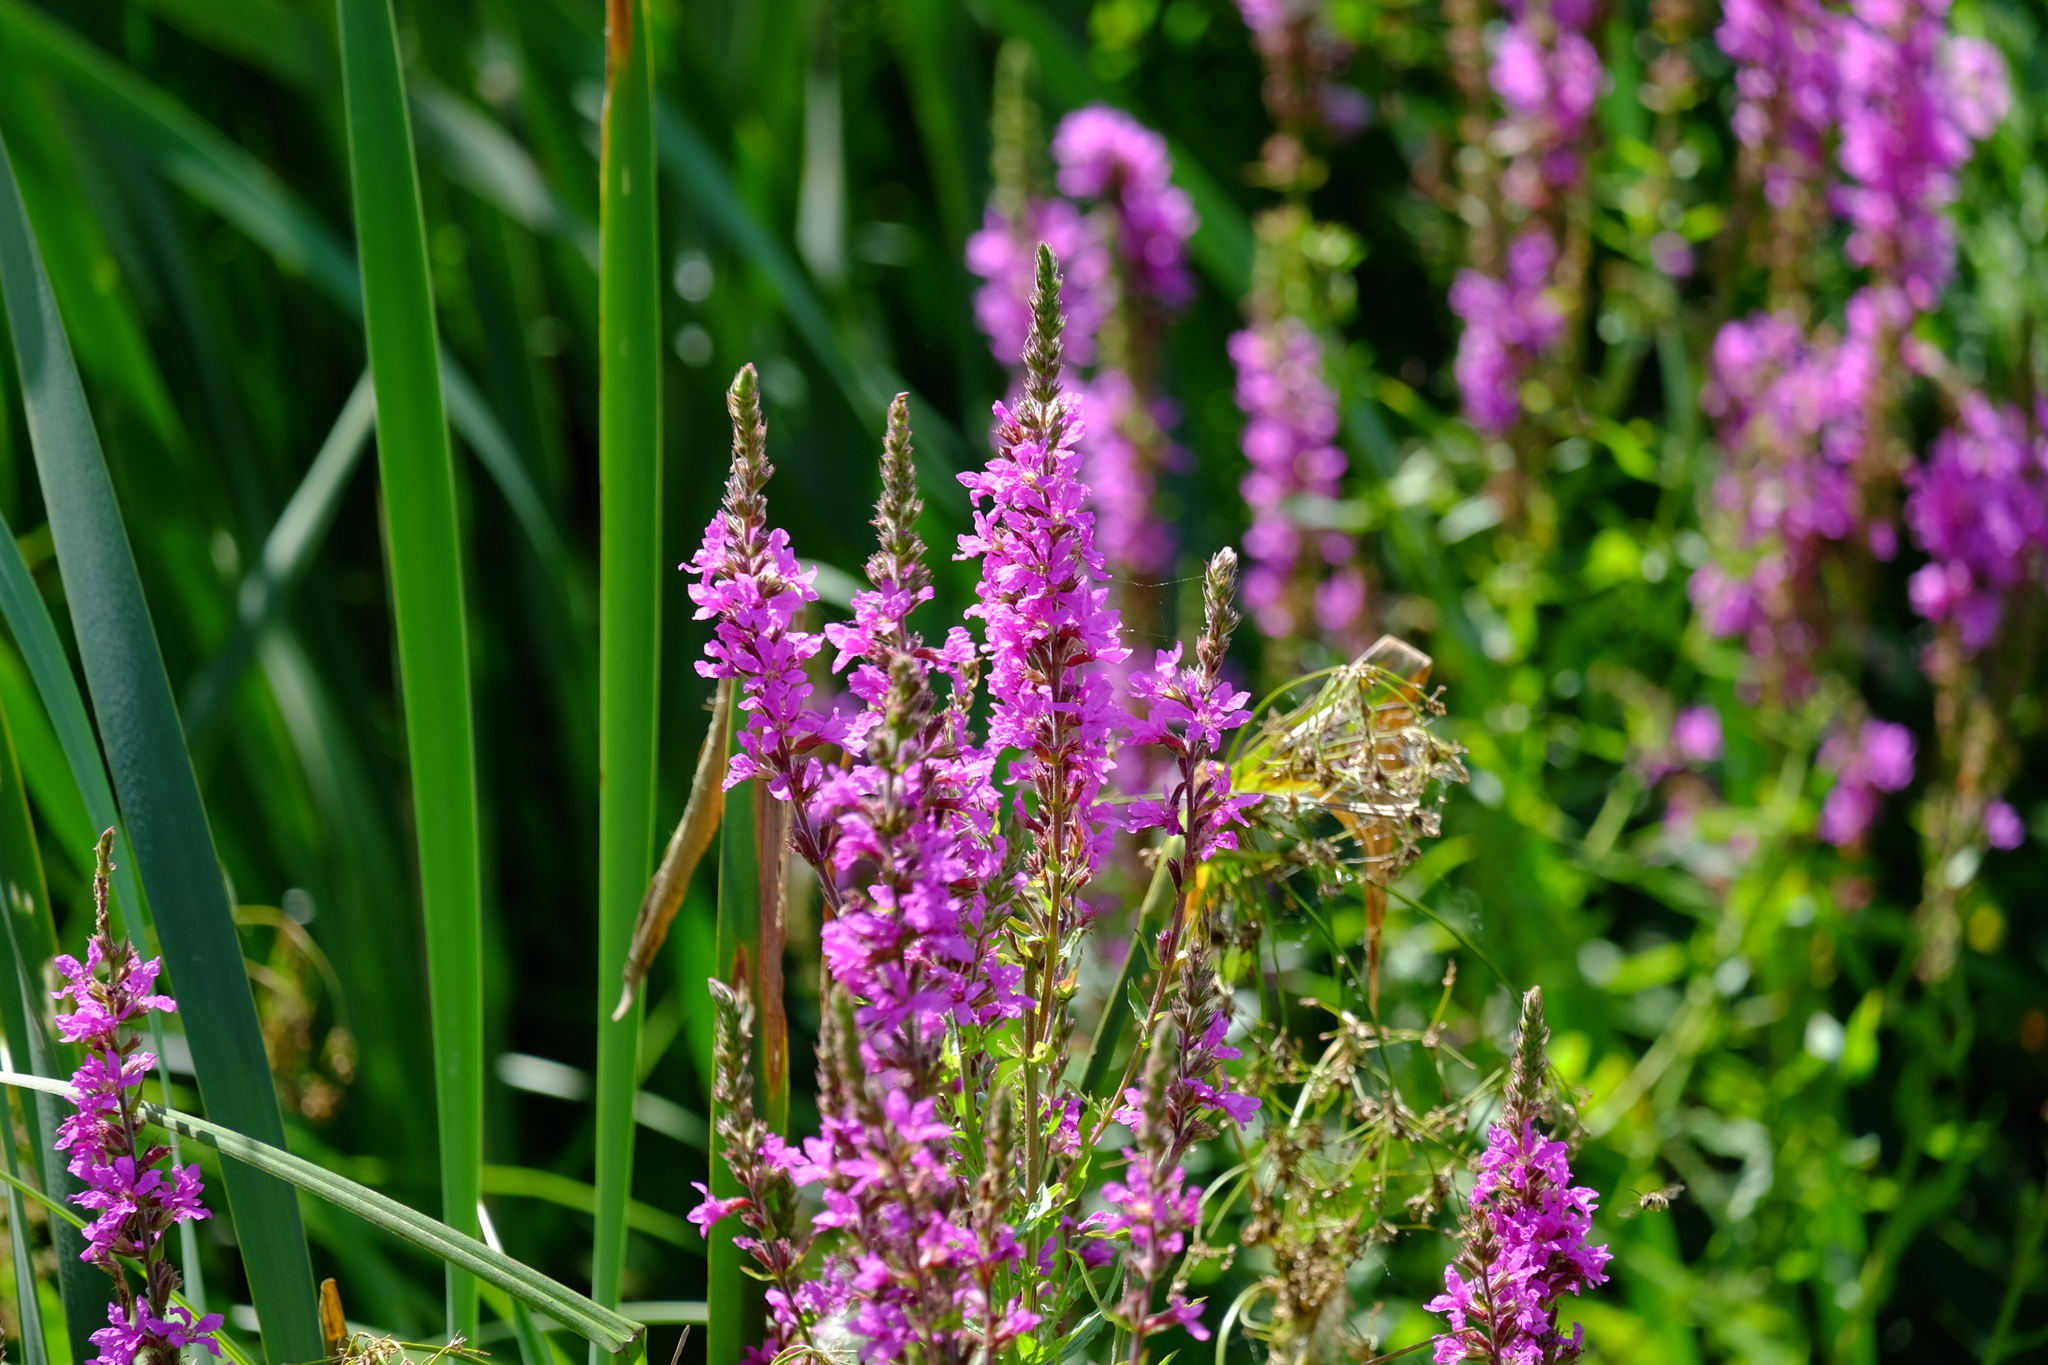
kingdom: Plantae
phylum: Tracheophyta
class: Magnoliopsida
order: Myrtales
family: Lythraceae
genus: Lythrum
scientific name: Lythrum salicaria
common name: Purple loosestrife
